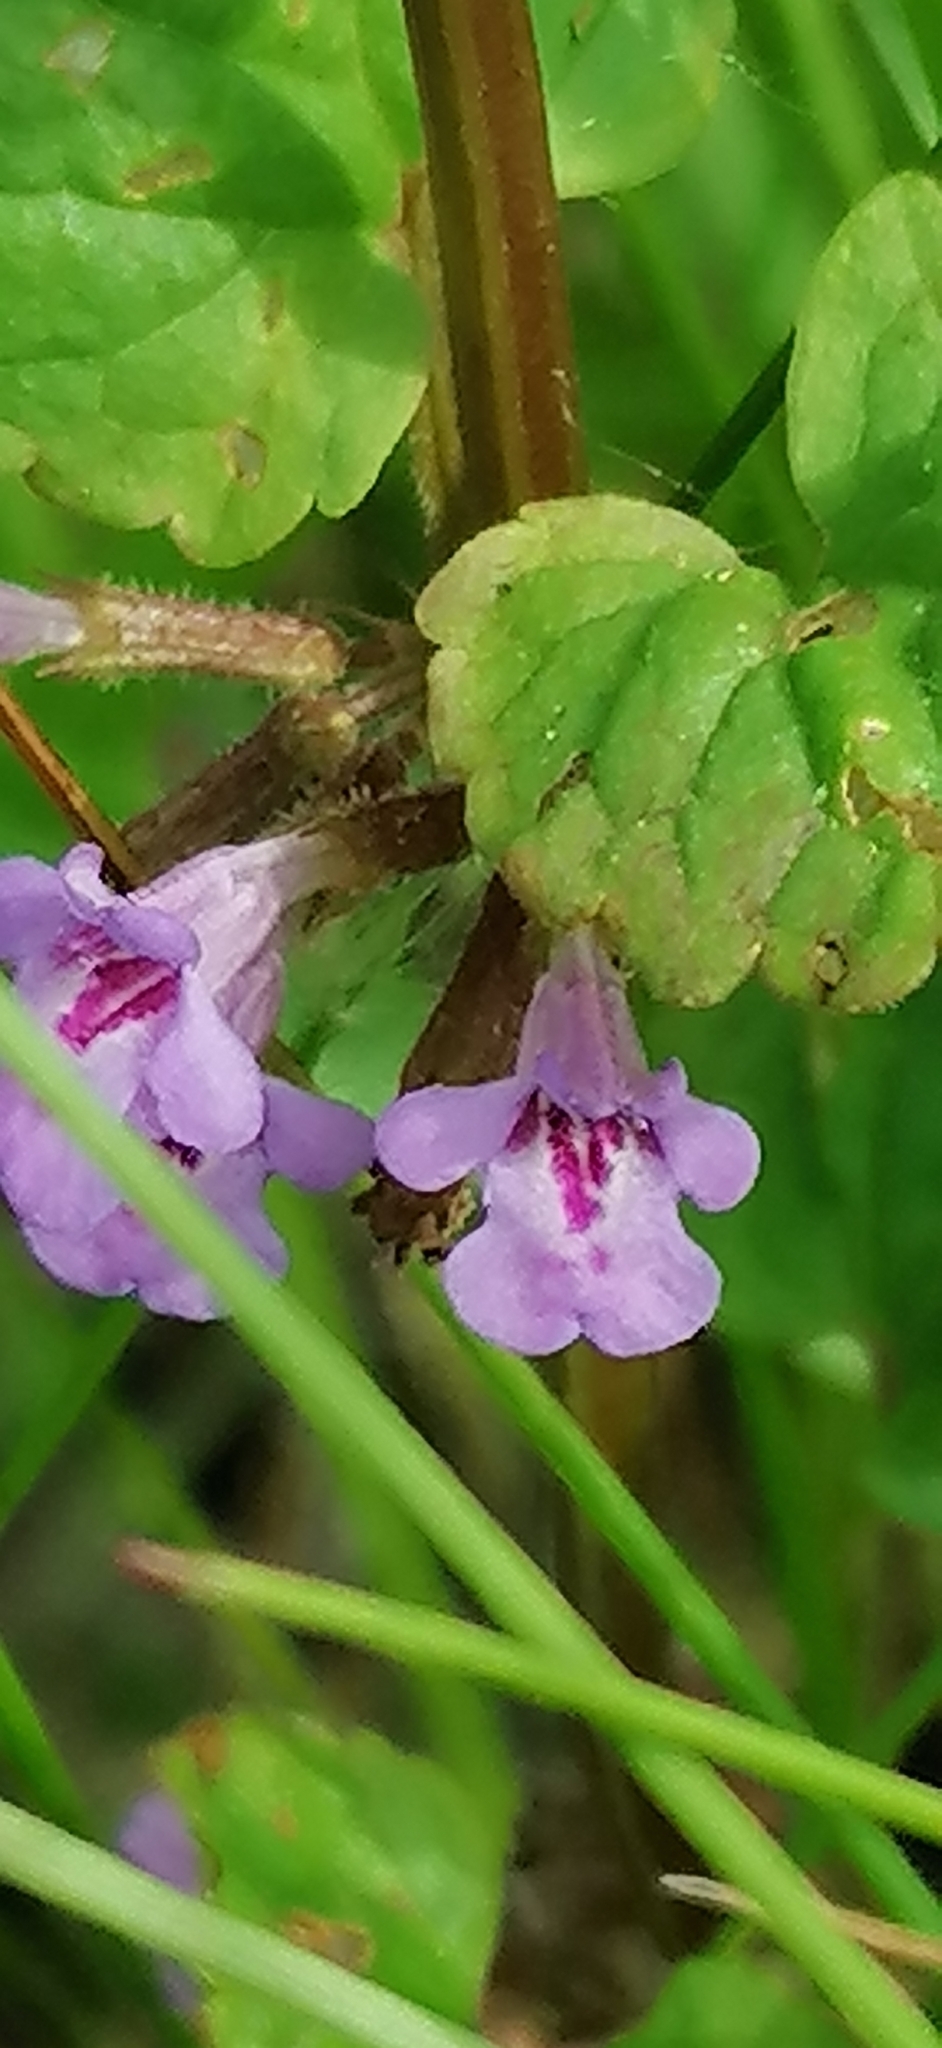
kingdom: Plantae
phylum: Tracheophyta
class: Magnoliopsida
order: Lamiales
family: Lamiaceae
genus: Glechoma
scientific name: Glechoma hederacea
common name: Ground ivy
